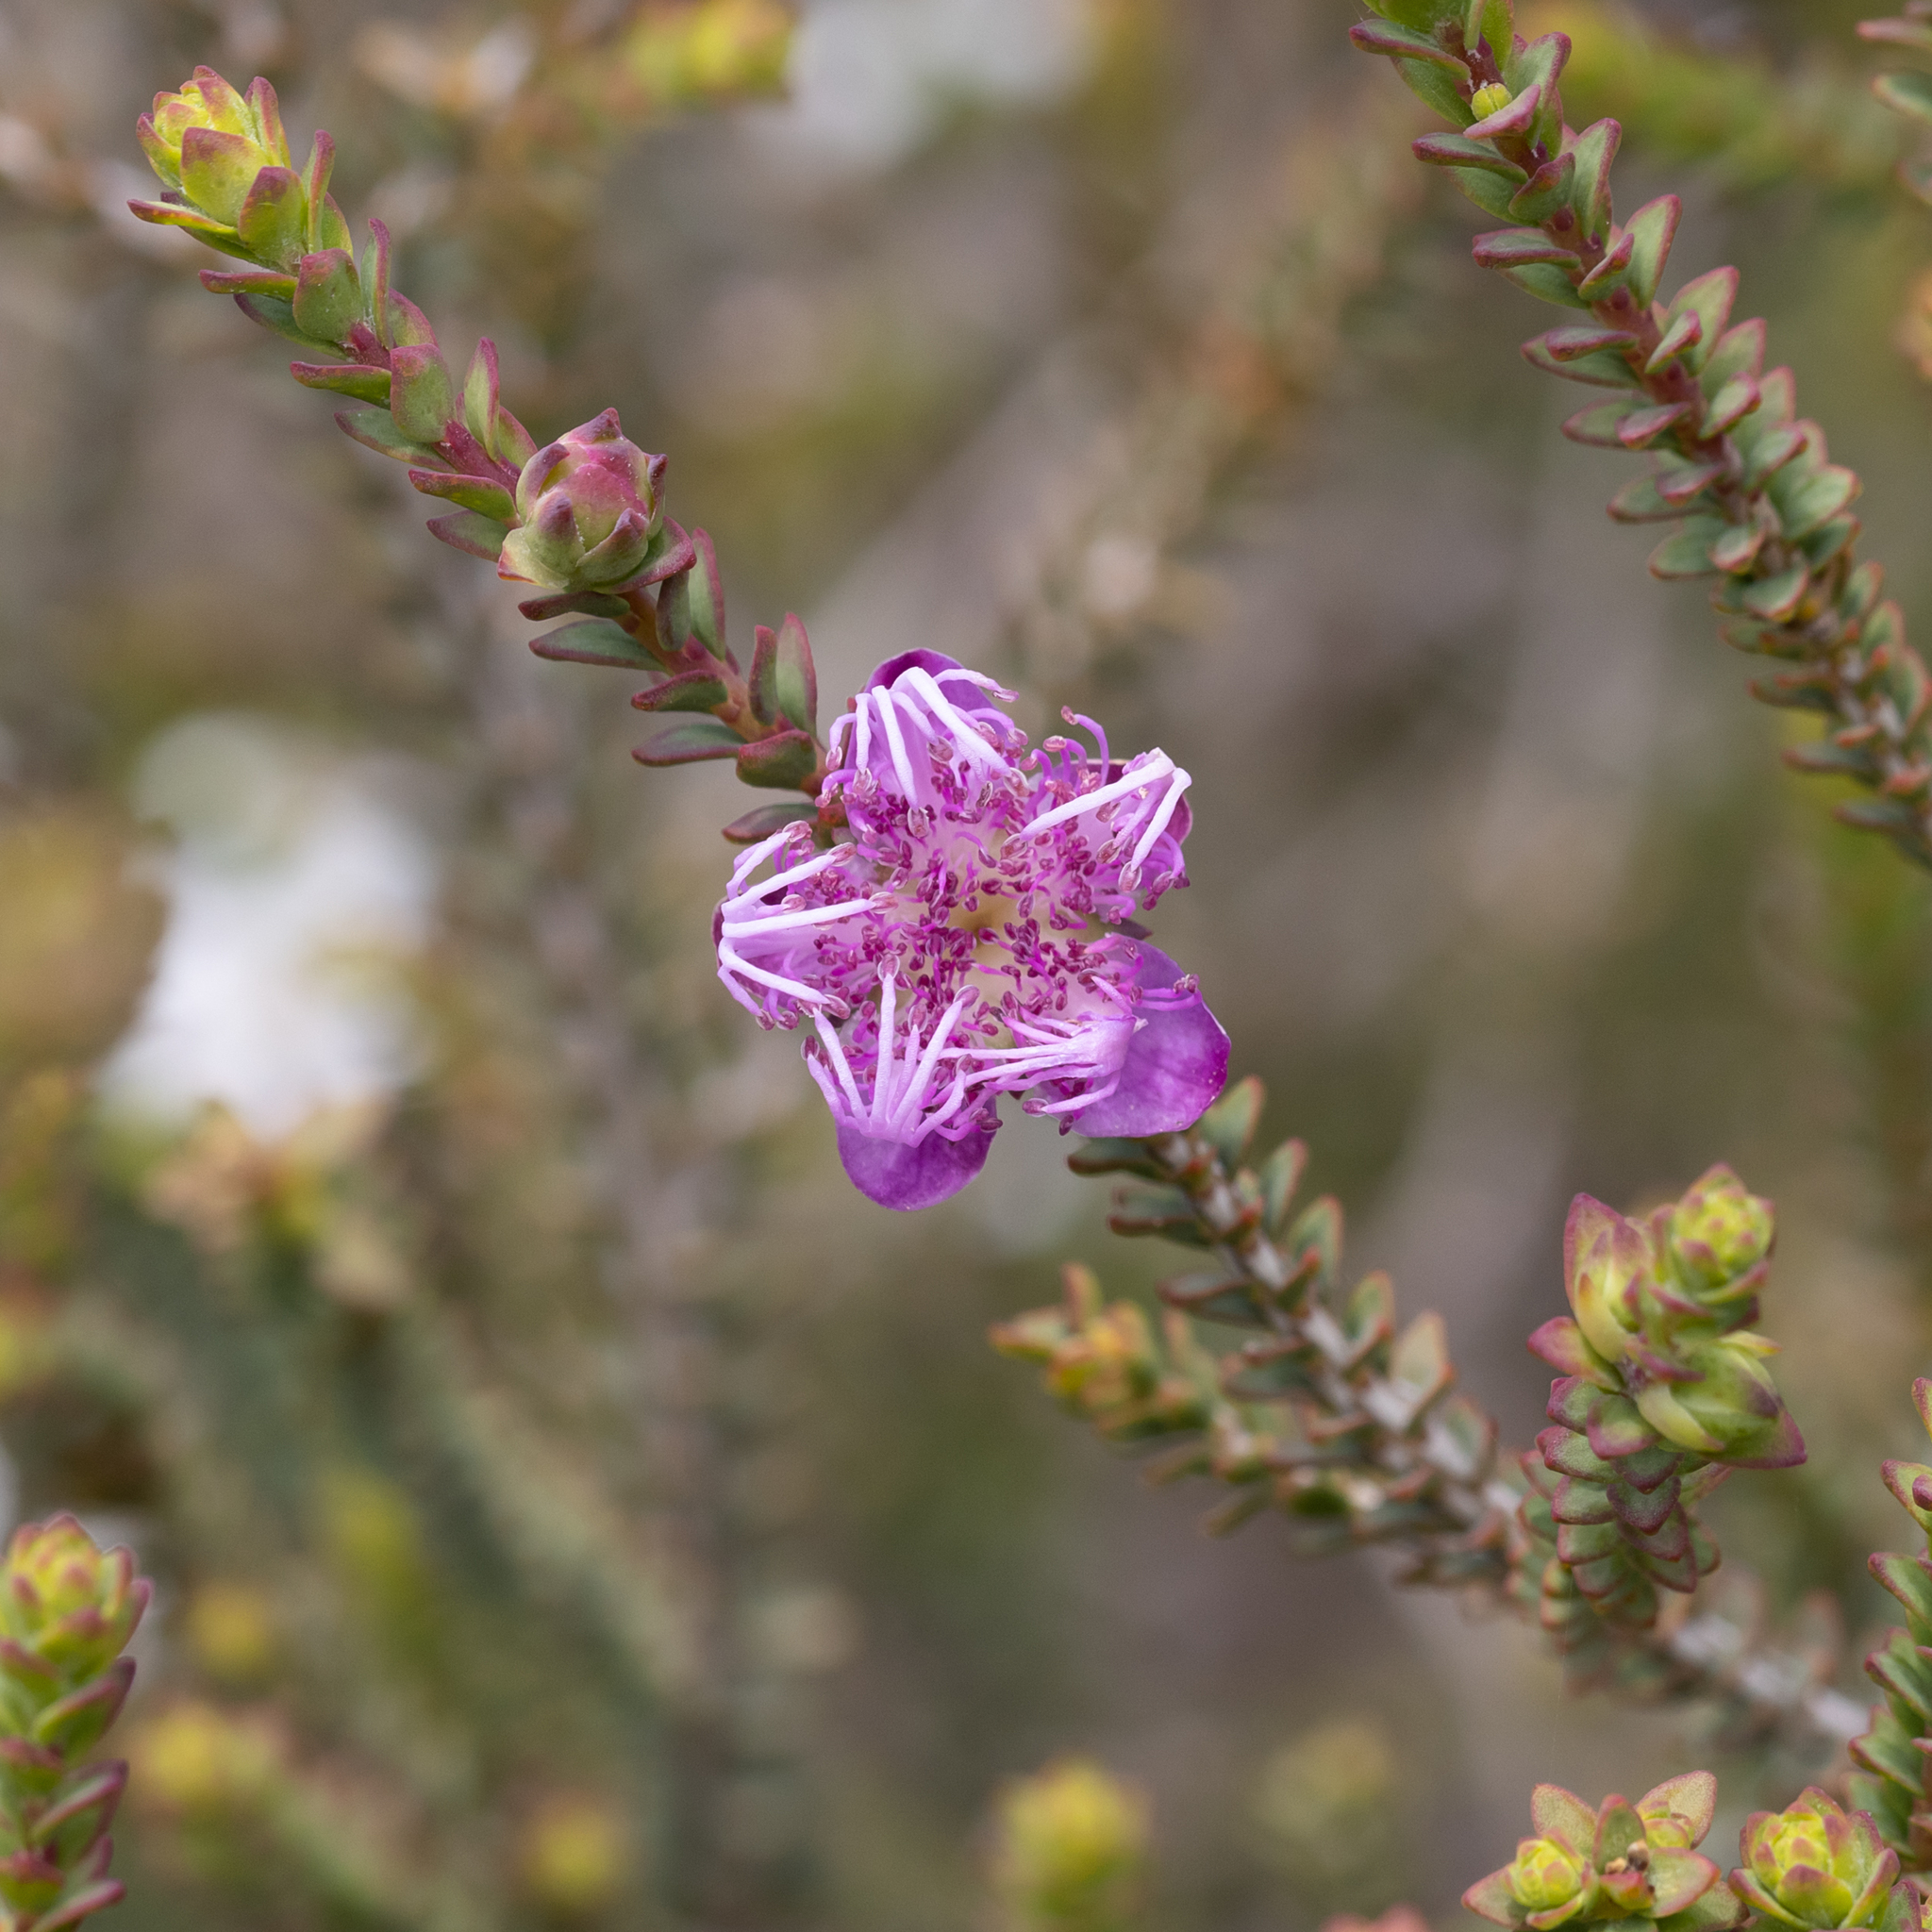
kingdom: Plantae
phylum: Tracheophyta
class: Magnoliopsida
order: Myrtales
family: Myrtaceae
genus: Melaleuca
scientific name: Melaleuca pulchella
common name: Claw-flower
